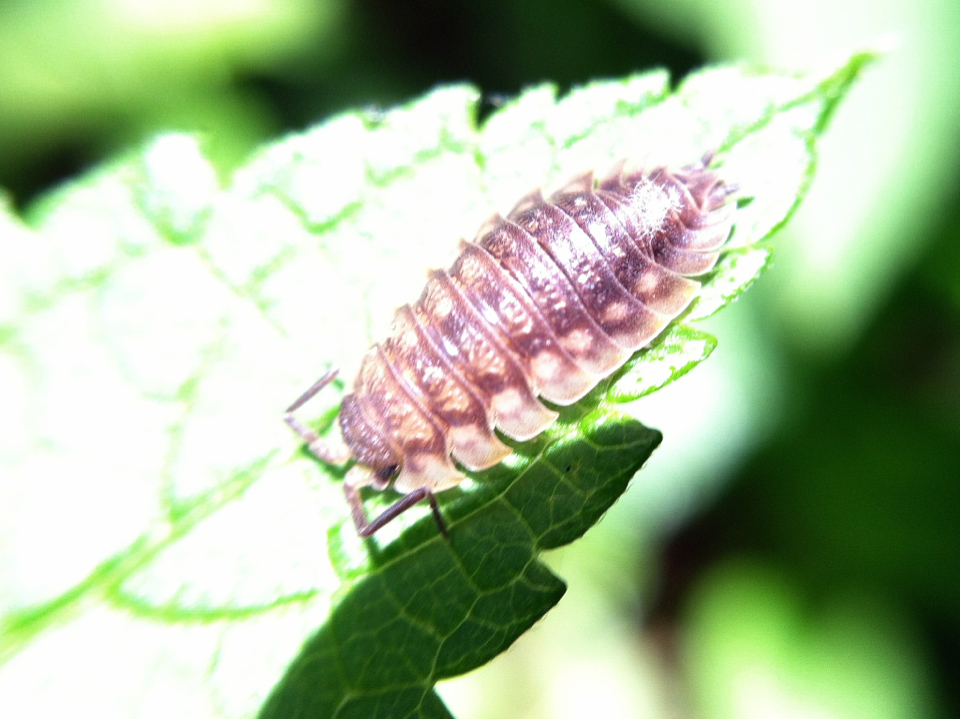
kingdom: Animalia
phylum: Arthropoda
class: Malacostraca
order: Isopoda
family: Oniscidae
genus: Oniscus
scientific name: Oniscus asellus
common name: Common shiny woodlouse
